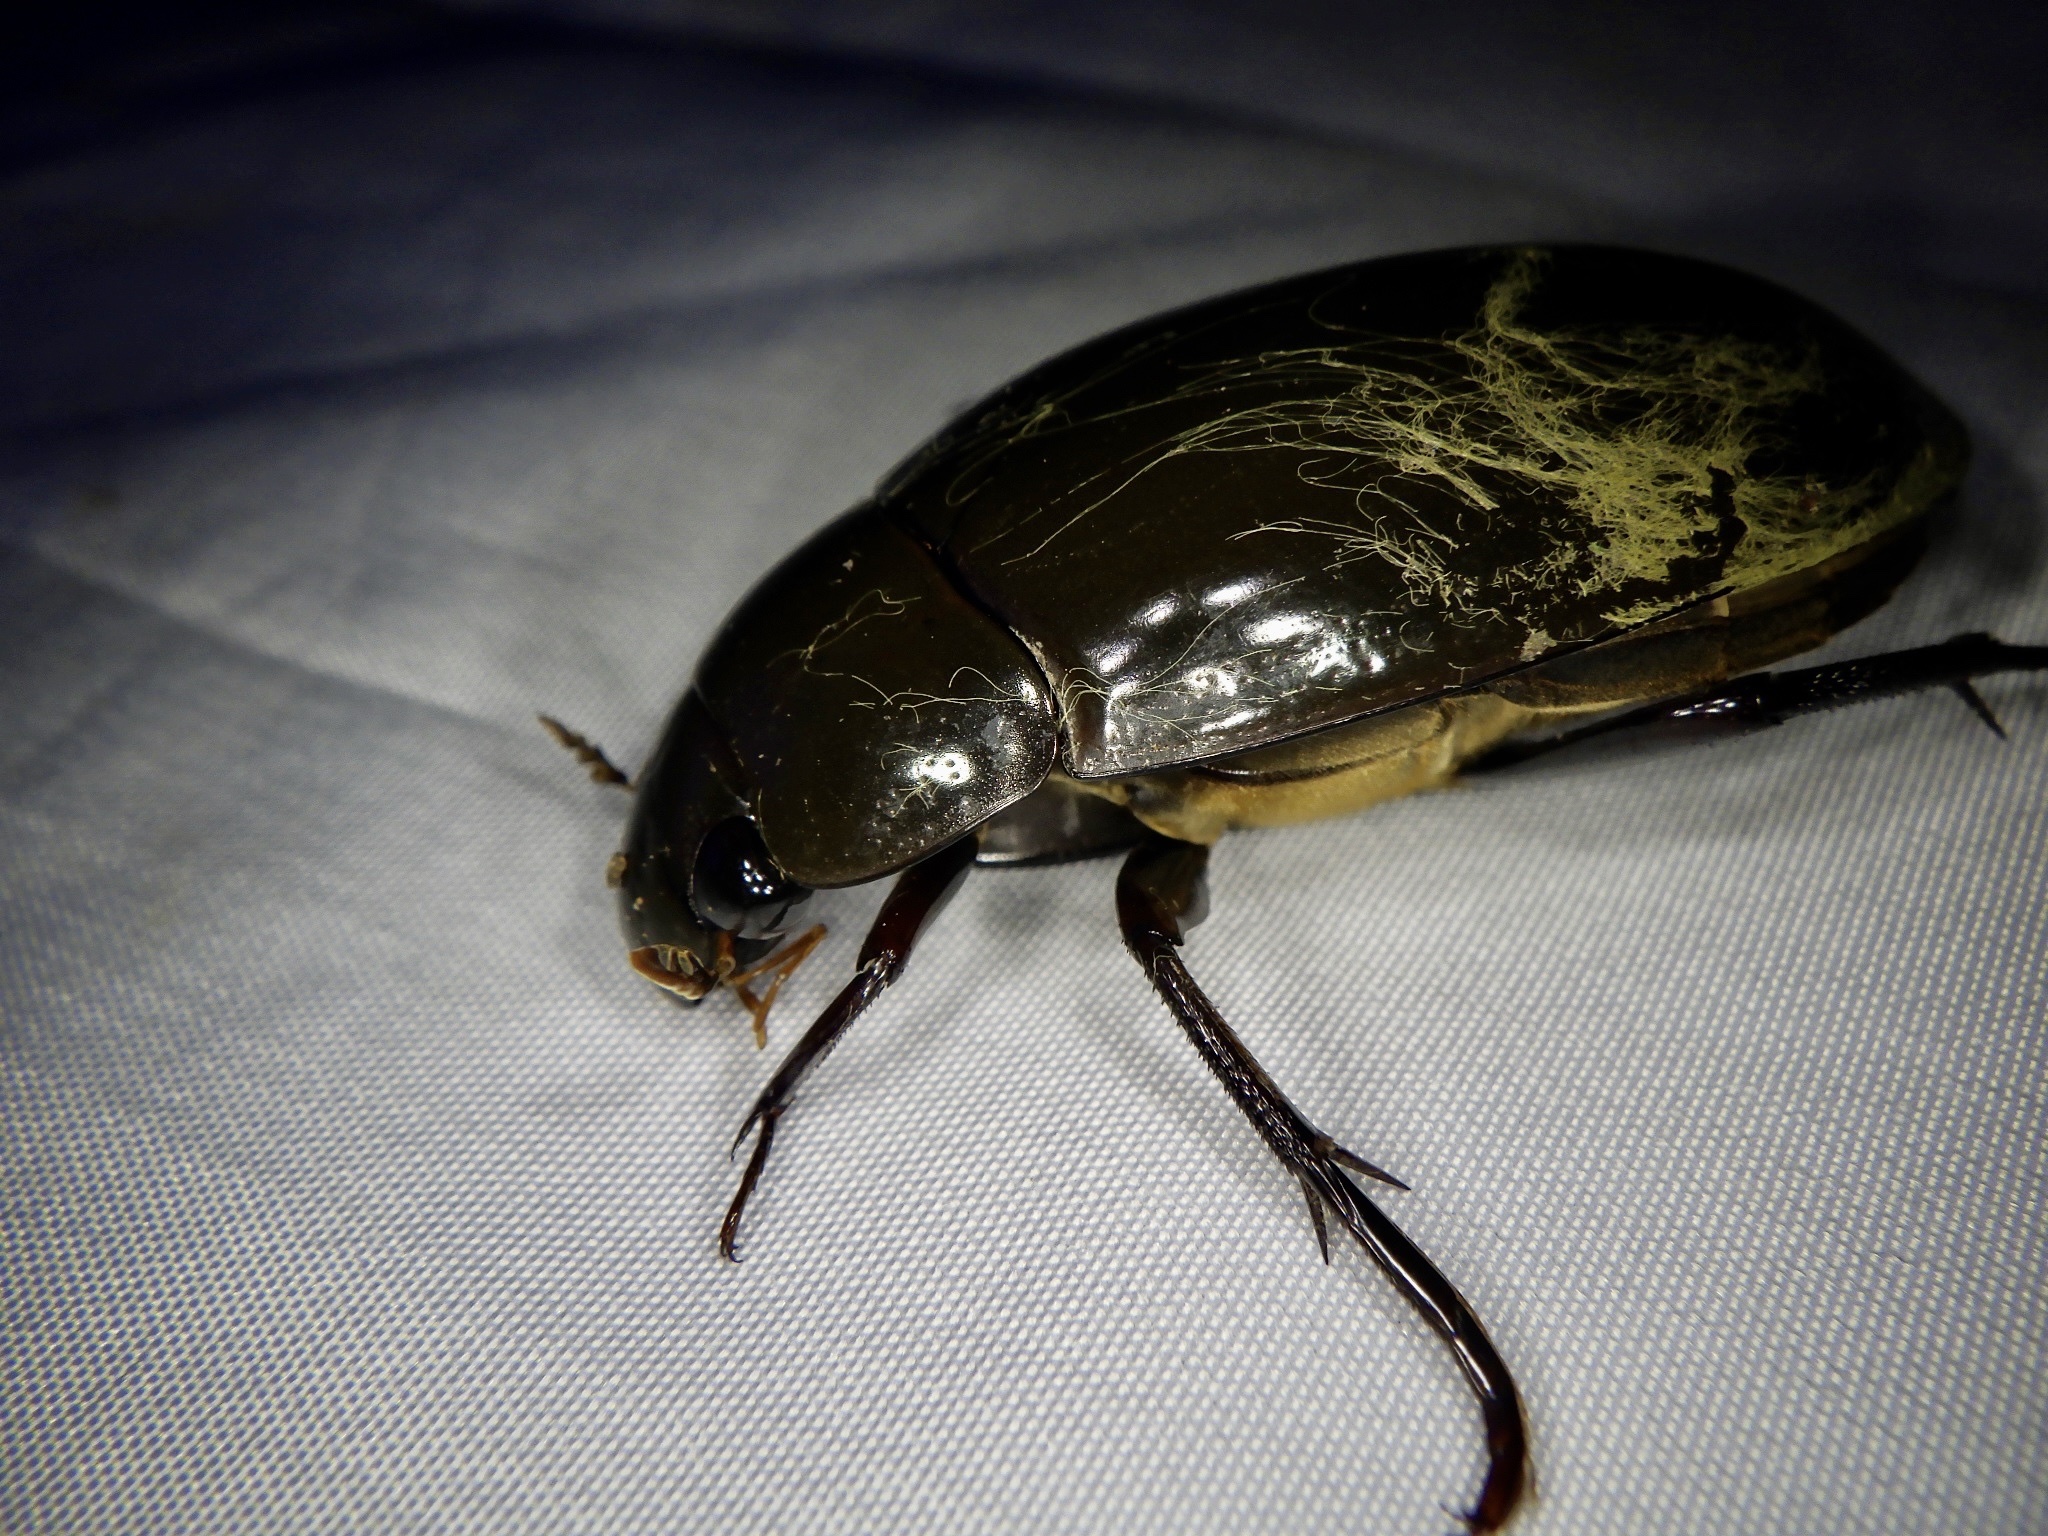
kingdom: Animalia
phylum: Arthropoda
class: Insecta
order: Coleoptera
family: Hydrophilidae
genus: Hydrophilus
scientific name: Hydrophilus acuminatus
